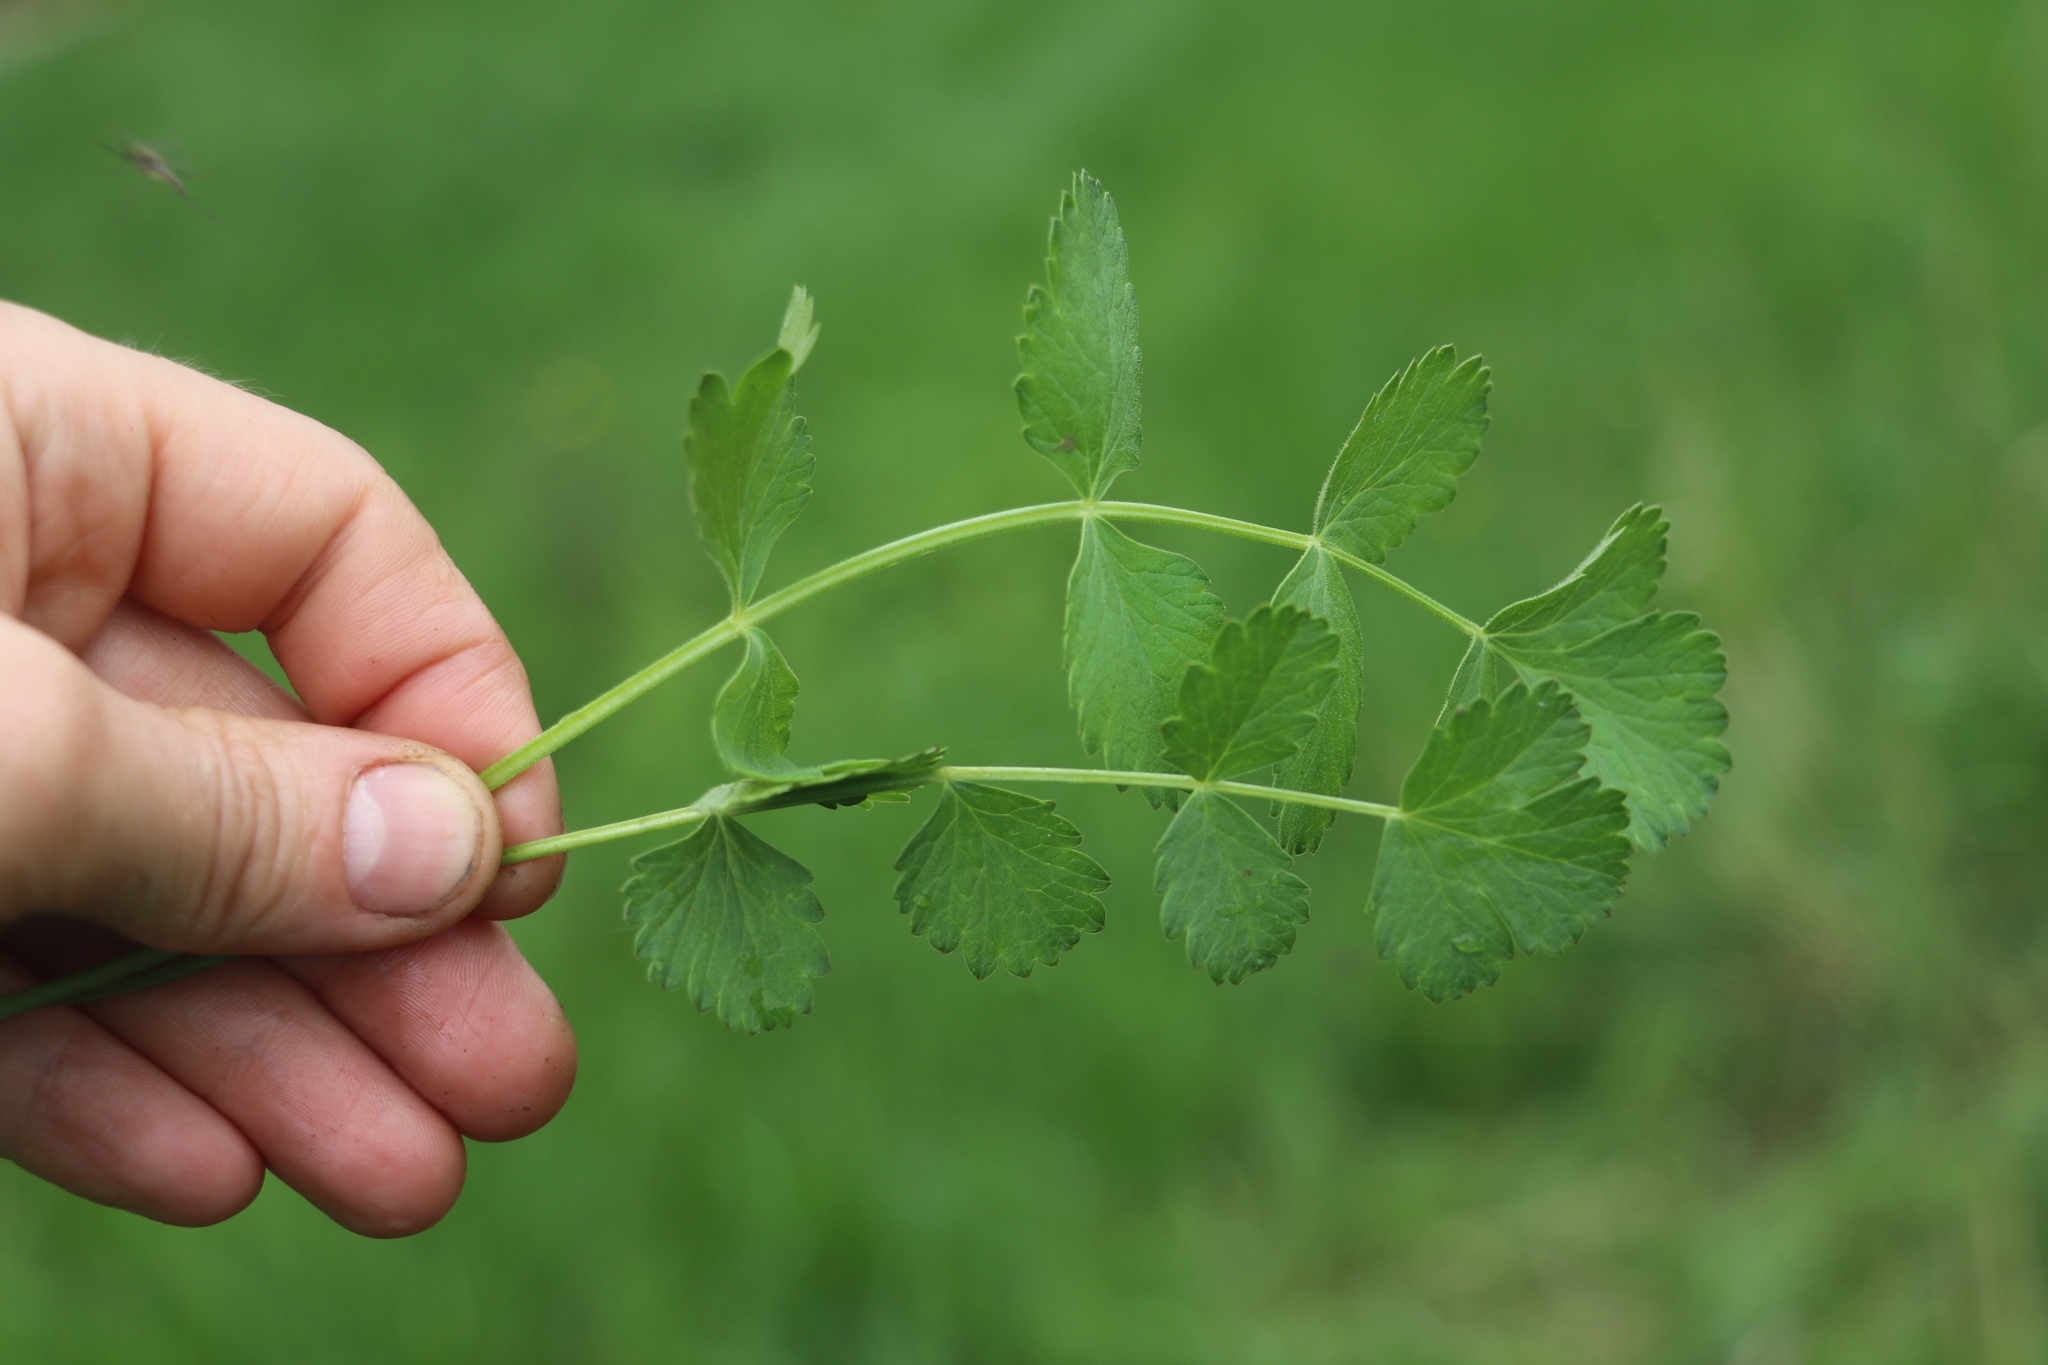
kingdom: Plantae
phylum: Tracheophyta
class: Magnoliopsida
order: Apiales
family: Apiaceae
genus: Pimpinella
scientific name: Pimpinella saxifraga
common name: Burnet-saxifrage
